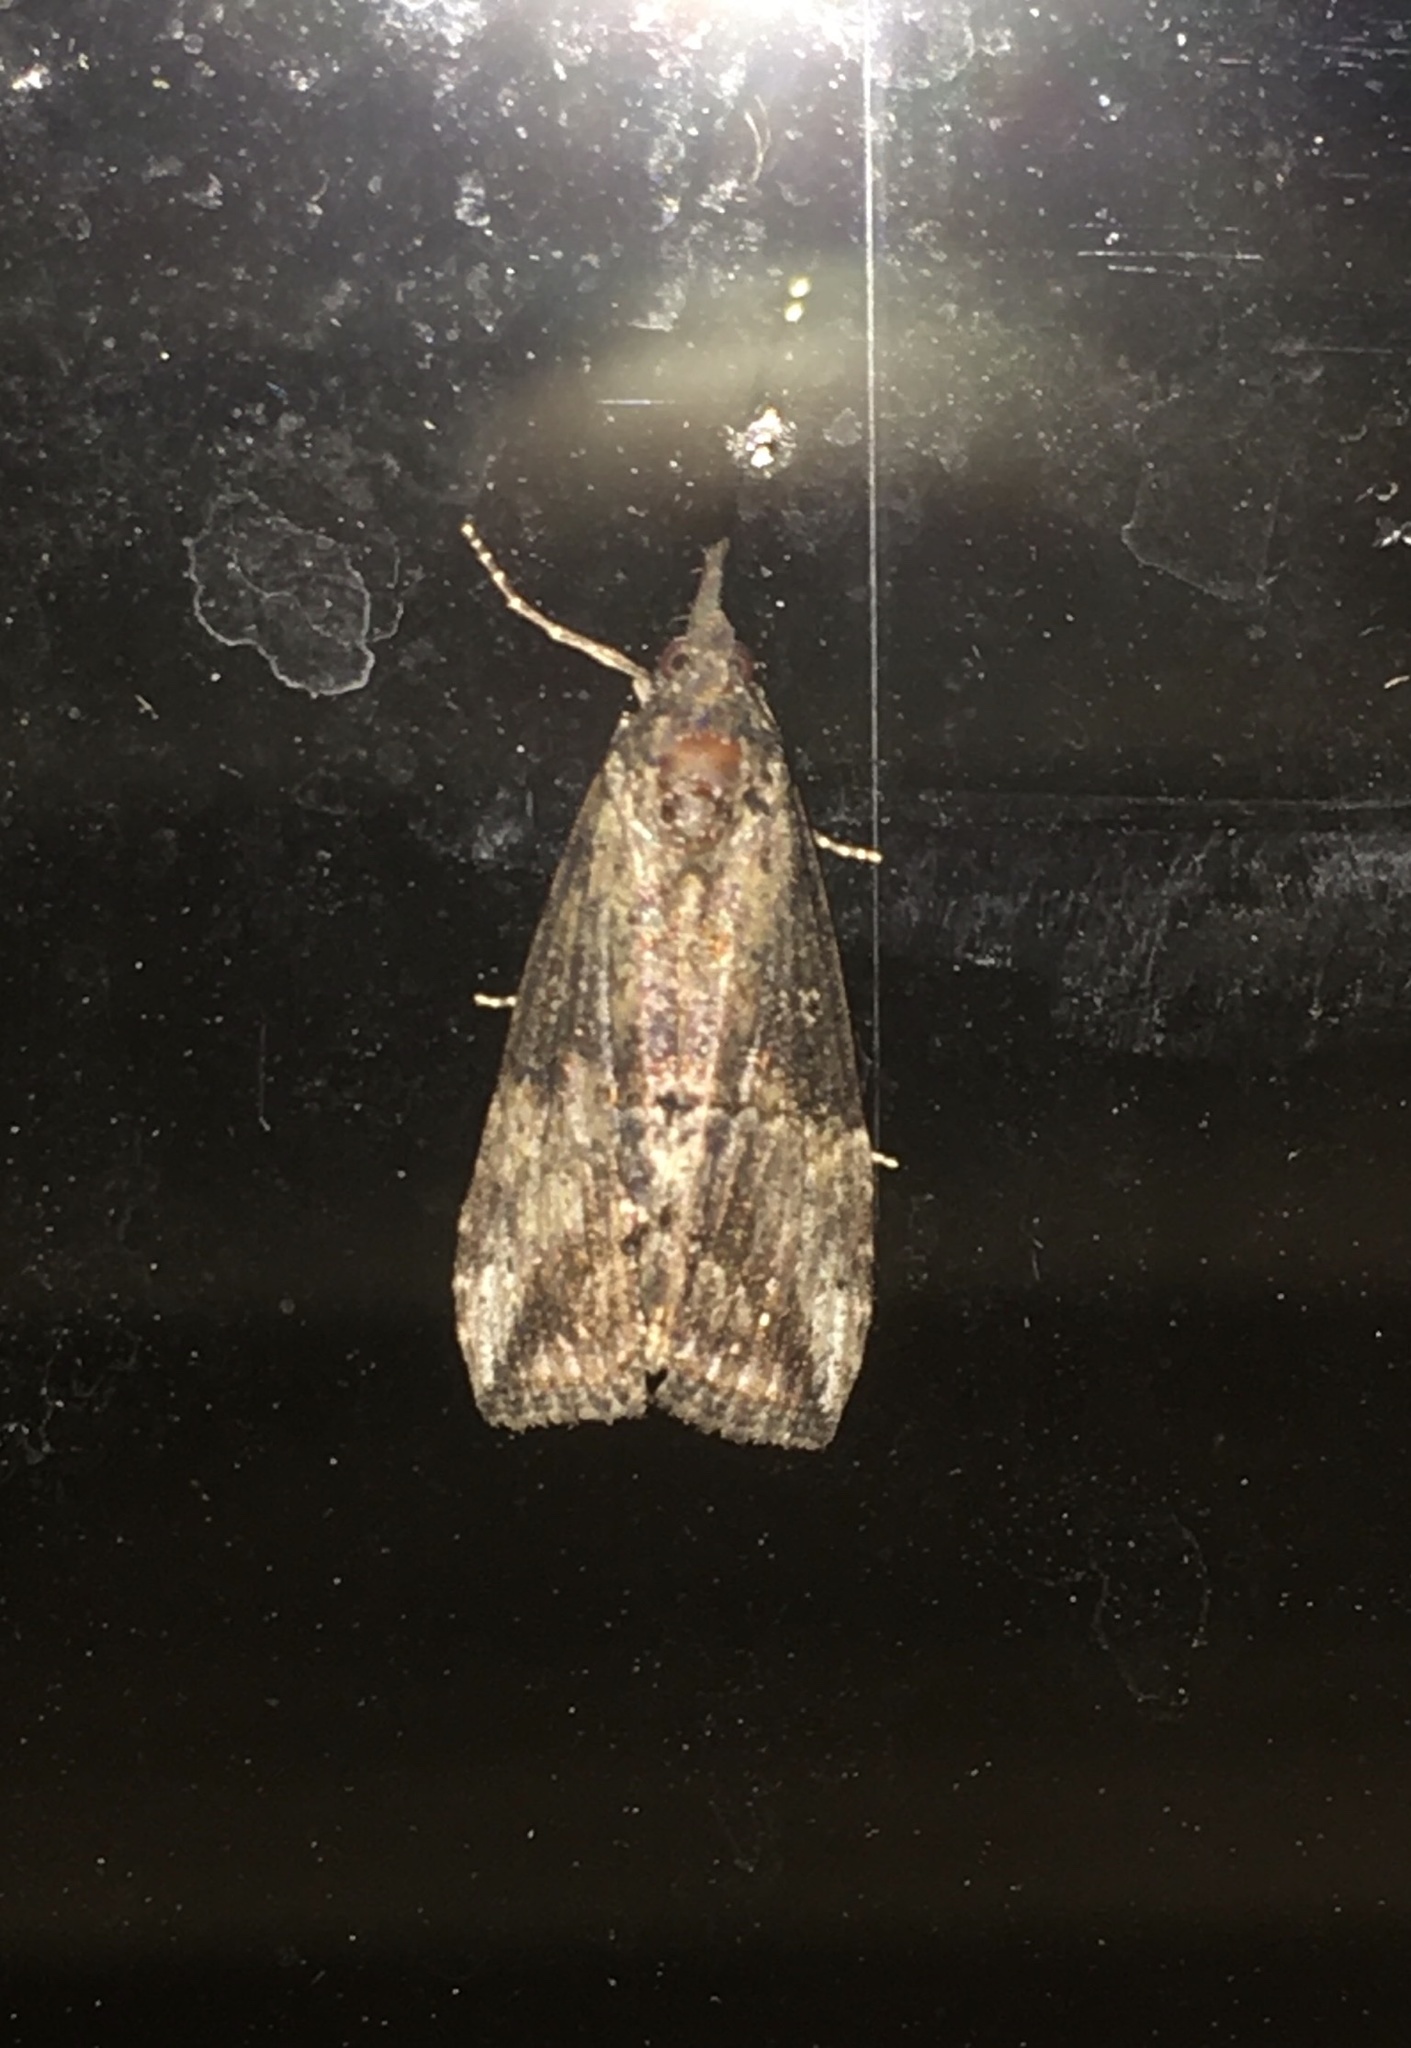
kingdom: Animalia
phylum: Arthropoda
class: Insecta
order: Lepidoptera
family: Erebidae
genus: Hypena
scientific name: Hypena scabra
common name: Green cloverworm
